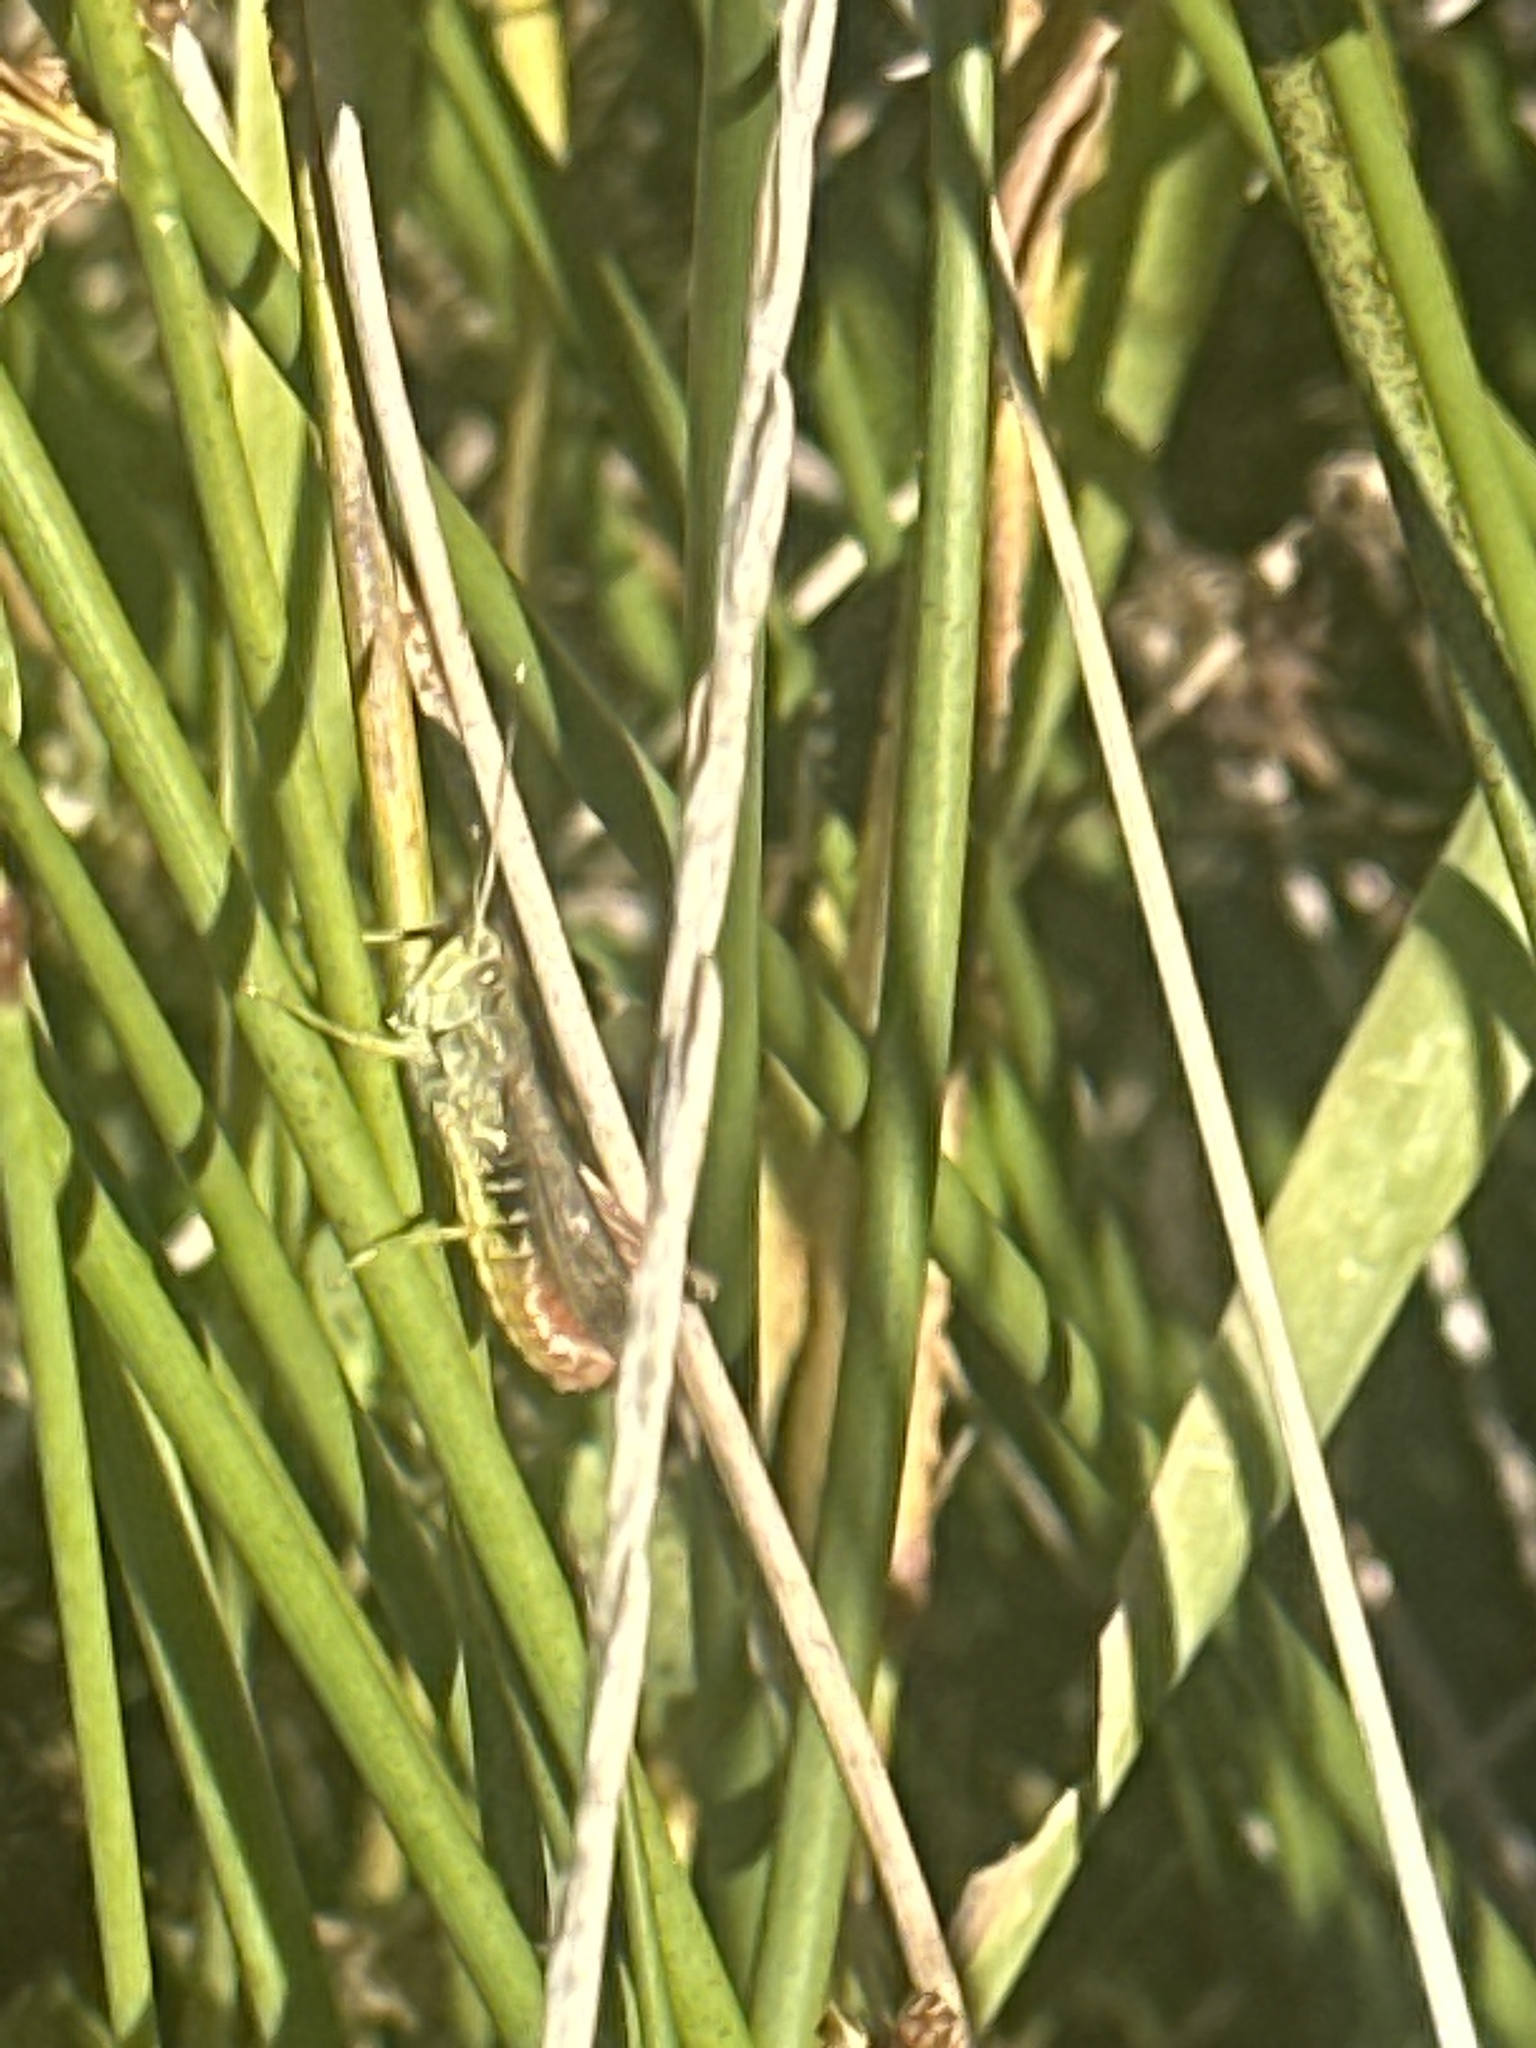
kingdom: Animalia
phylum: Arthropoda
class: Insecta
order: Orthoptera
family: Acrididae
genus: Gomphocerippus
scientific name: Gomphocerippus rufus
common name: Rufous grasshopper
